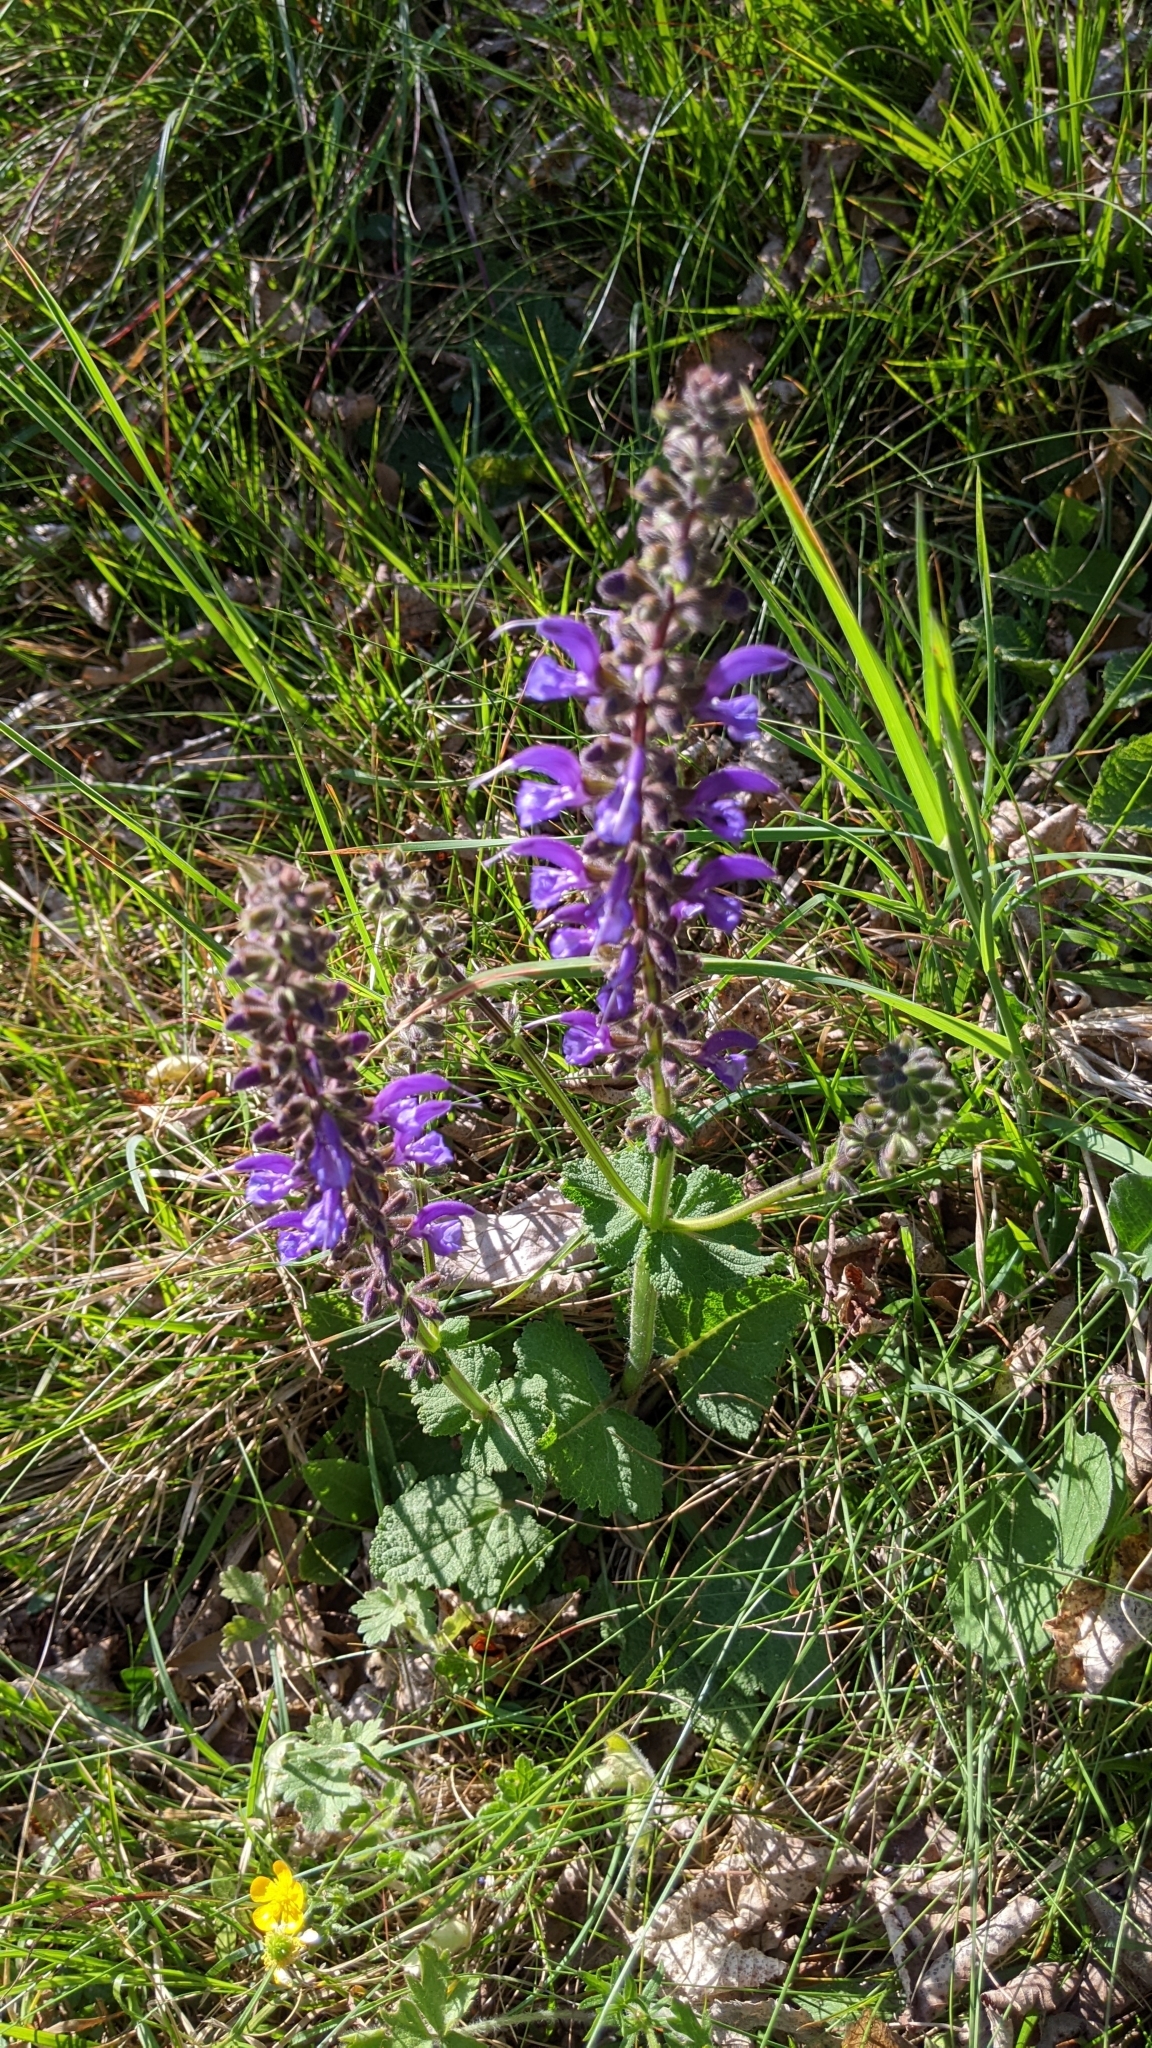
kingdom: Plantae
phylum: Tracheophyta
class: Magnoliopsida
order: Lamiales
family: Lamiaceae
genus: Salvia
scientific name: Salvia pratensis
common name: Meadow sage
